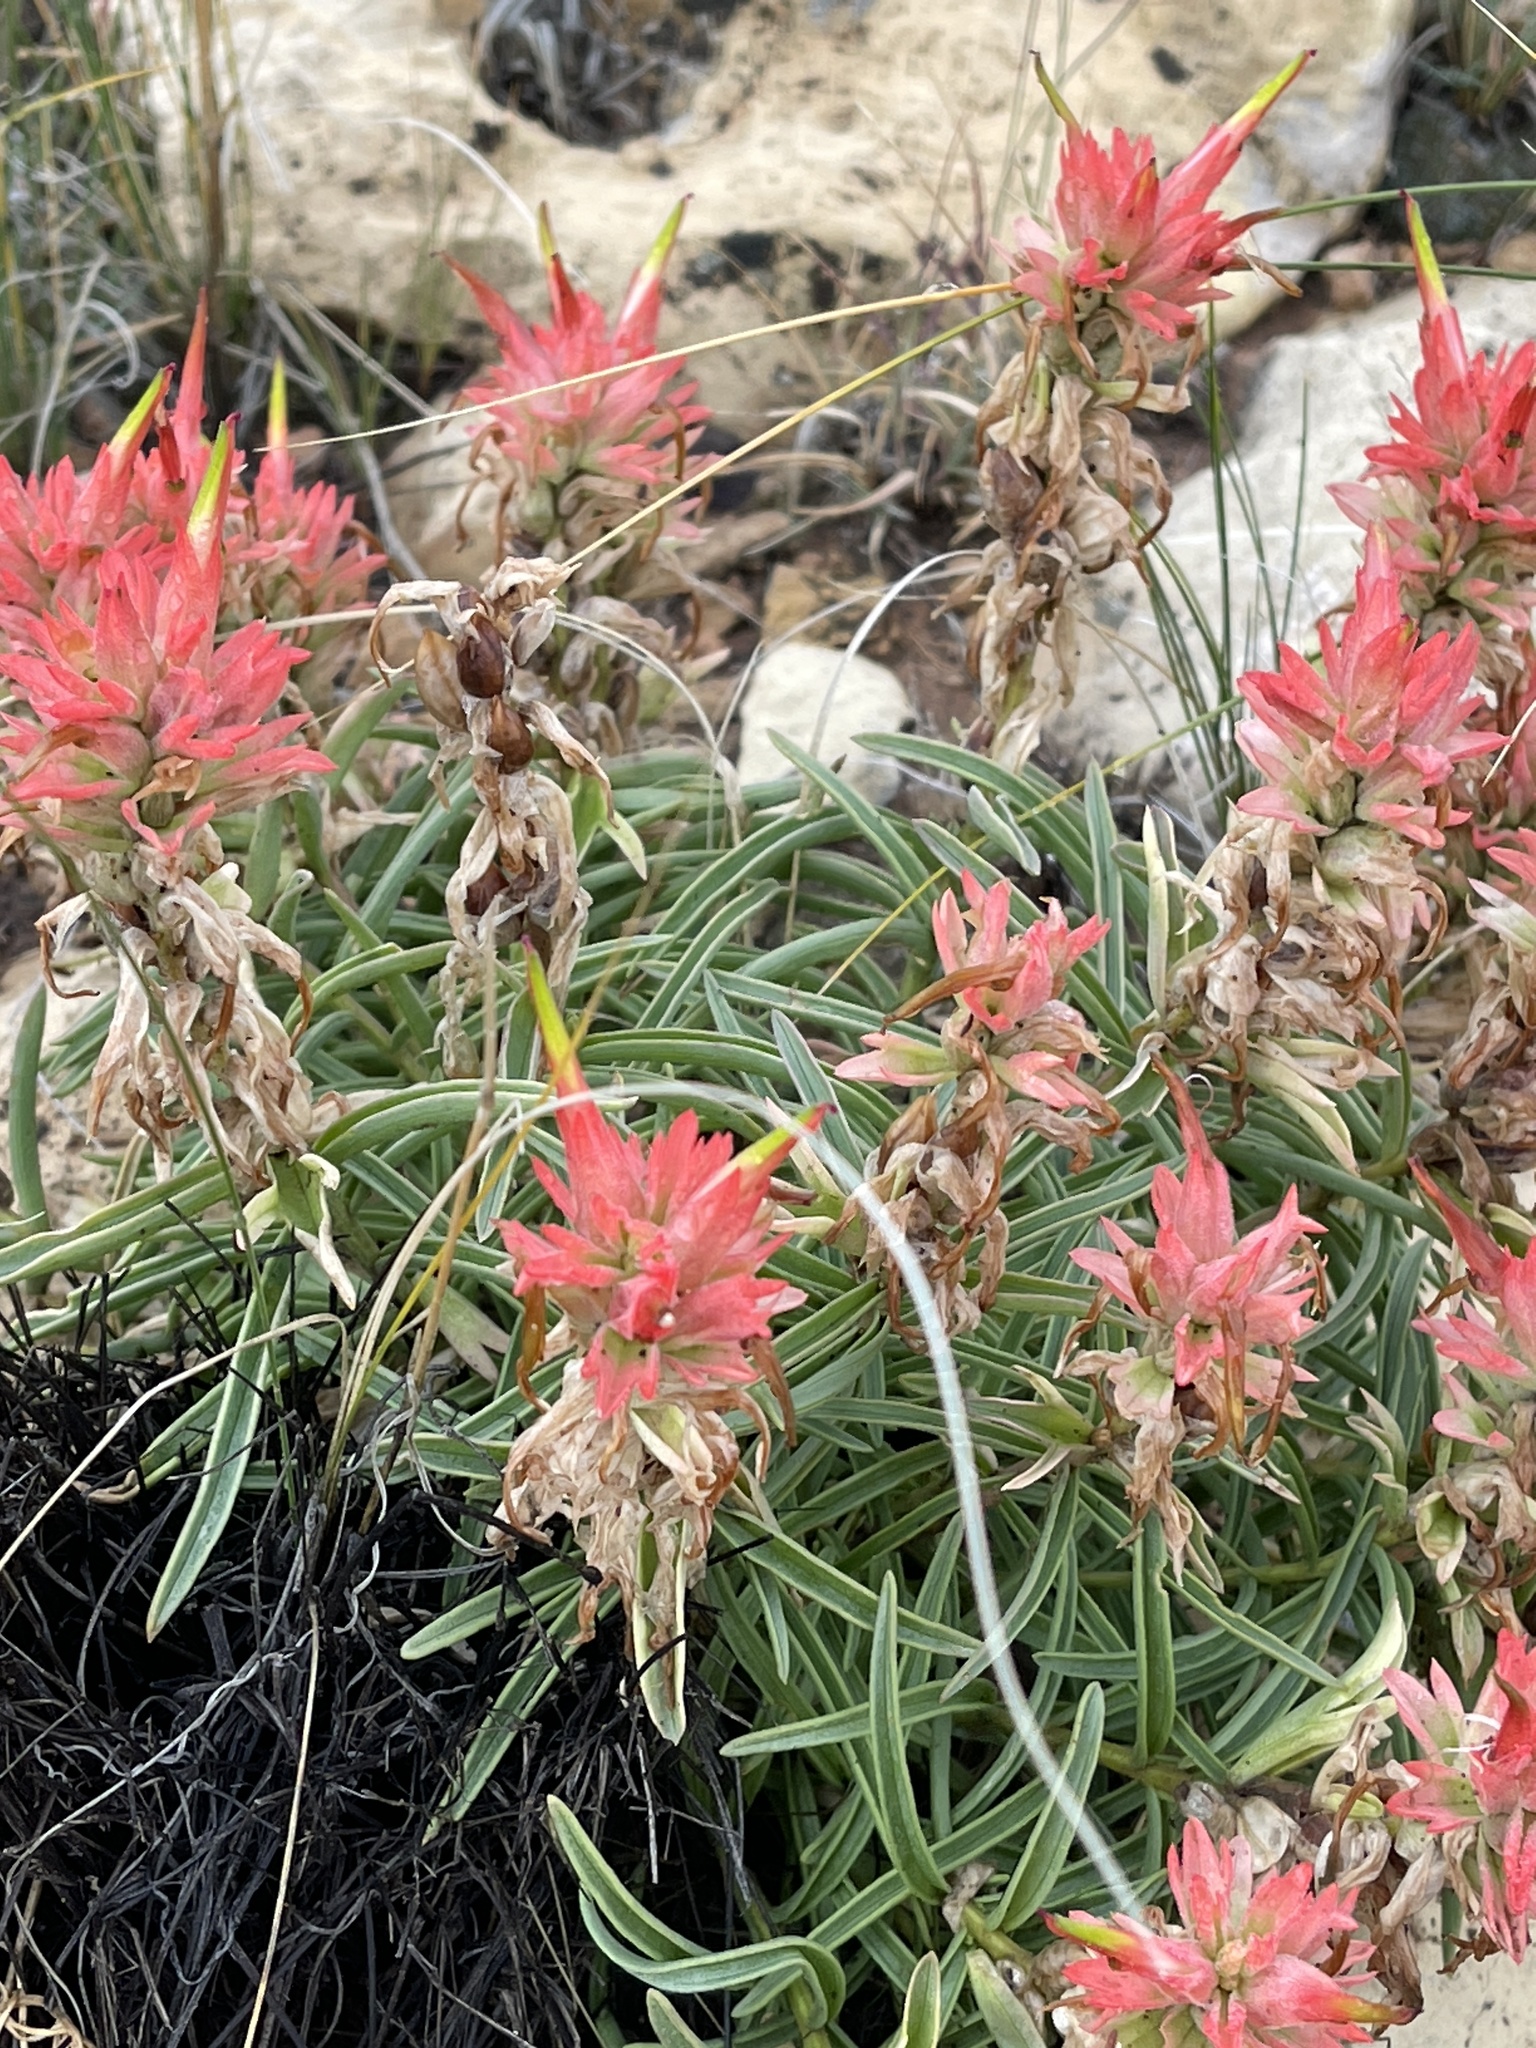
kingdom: Plantae
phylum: Tracheophyta
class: Magnoliopsida
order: Lamiales
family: Orobanchaceae
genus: Castilleja
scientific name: Castilleja integra
